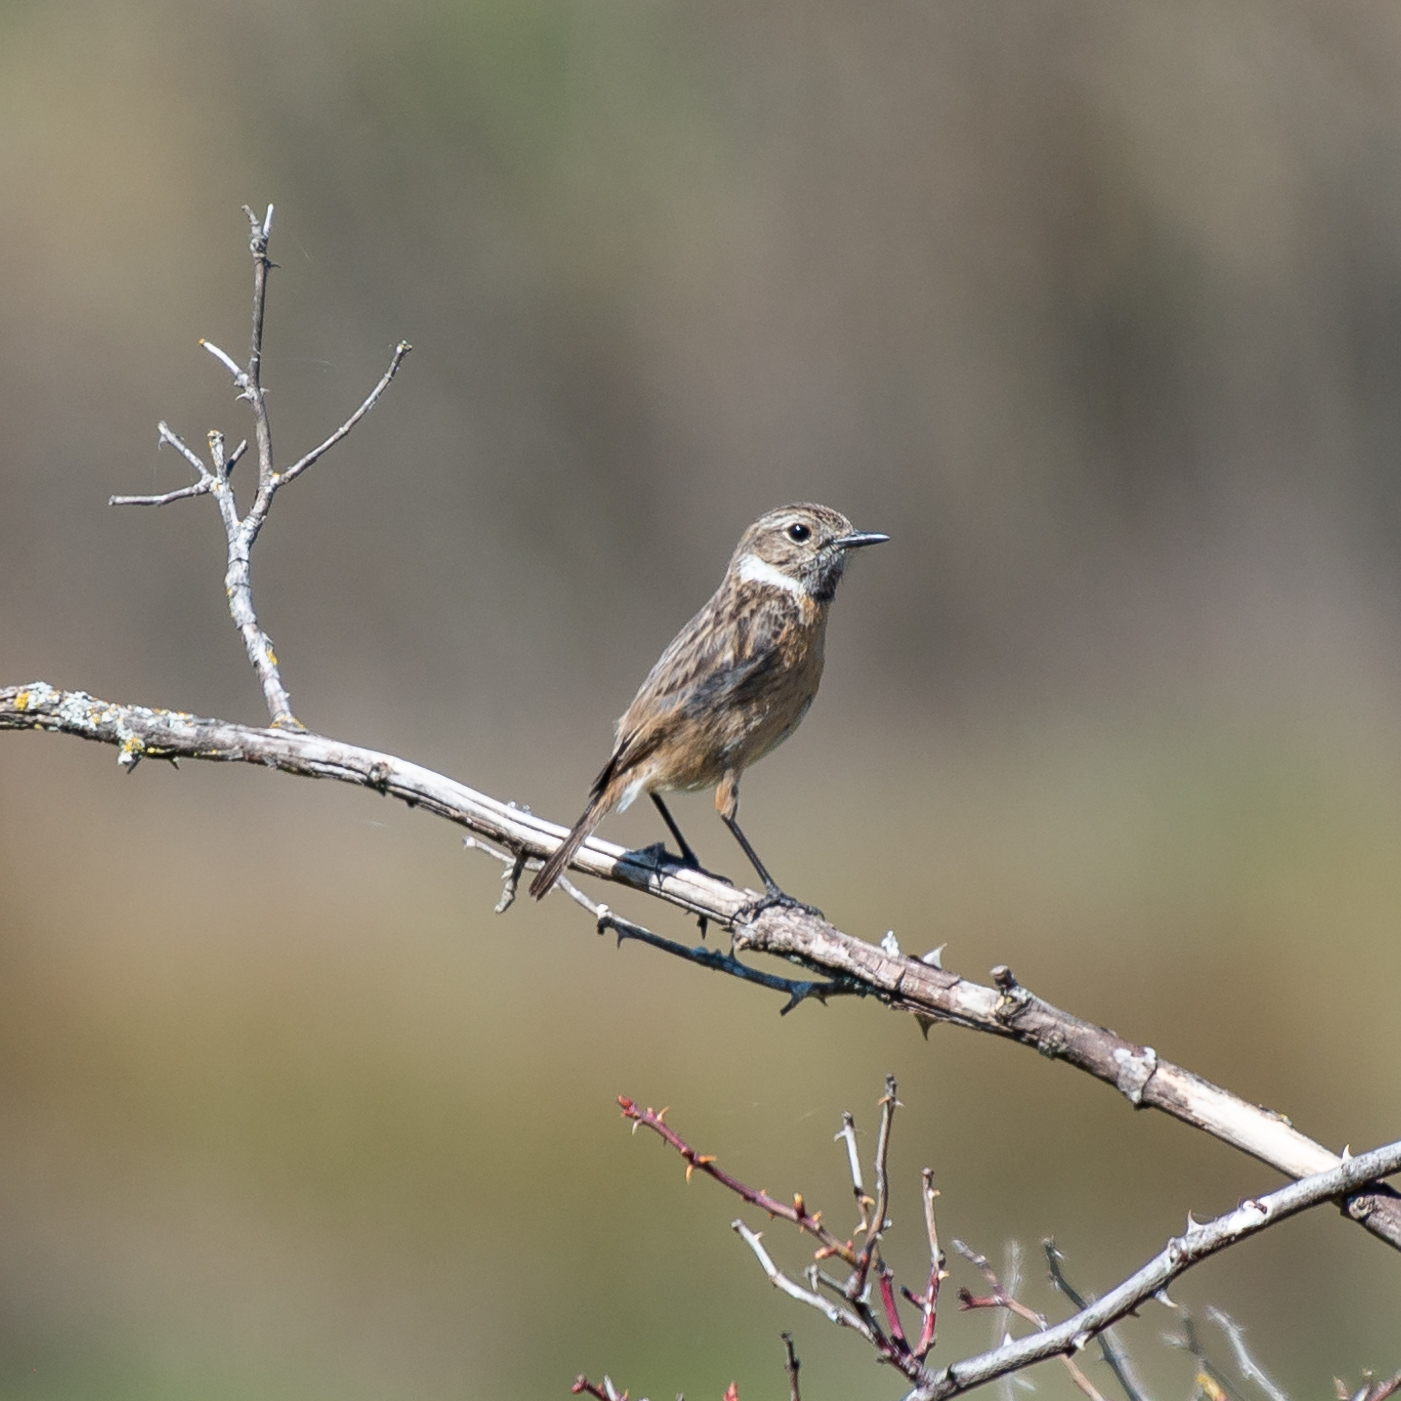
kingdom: Animalia
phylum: Chordata
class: Aves
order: Passeriformes
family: Muscicapidae
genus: Saxicola
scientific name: Saxicola rubicola
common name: European stonechat
